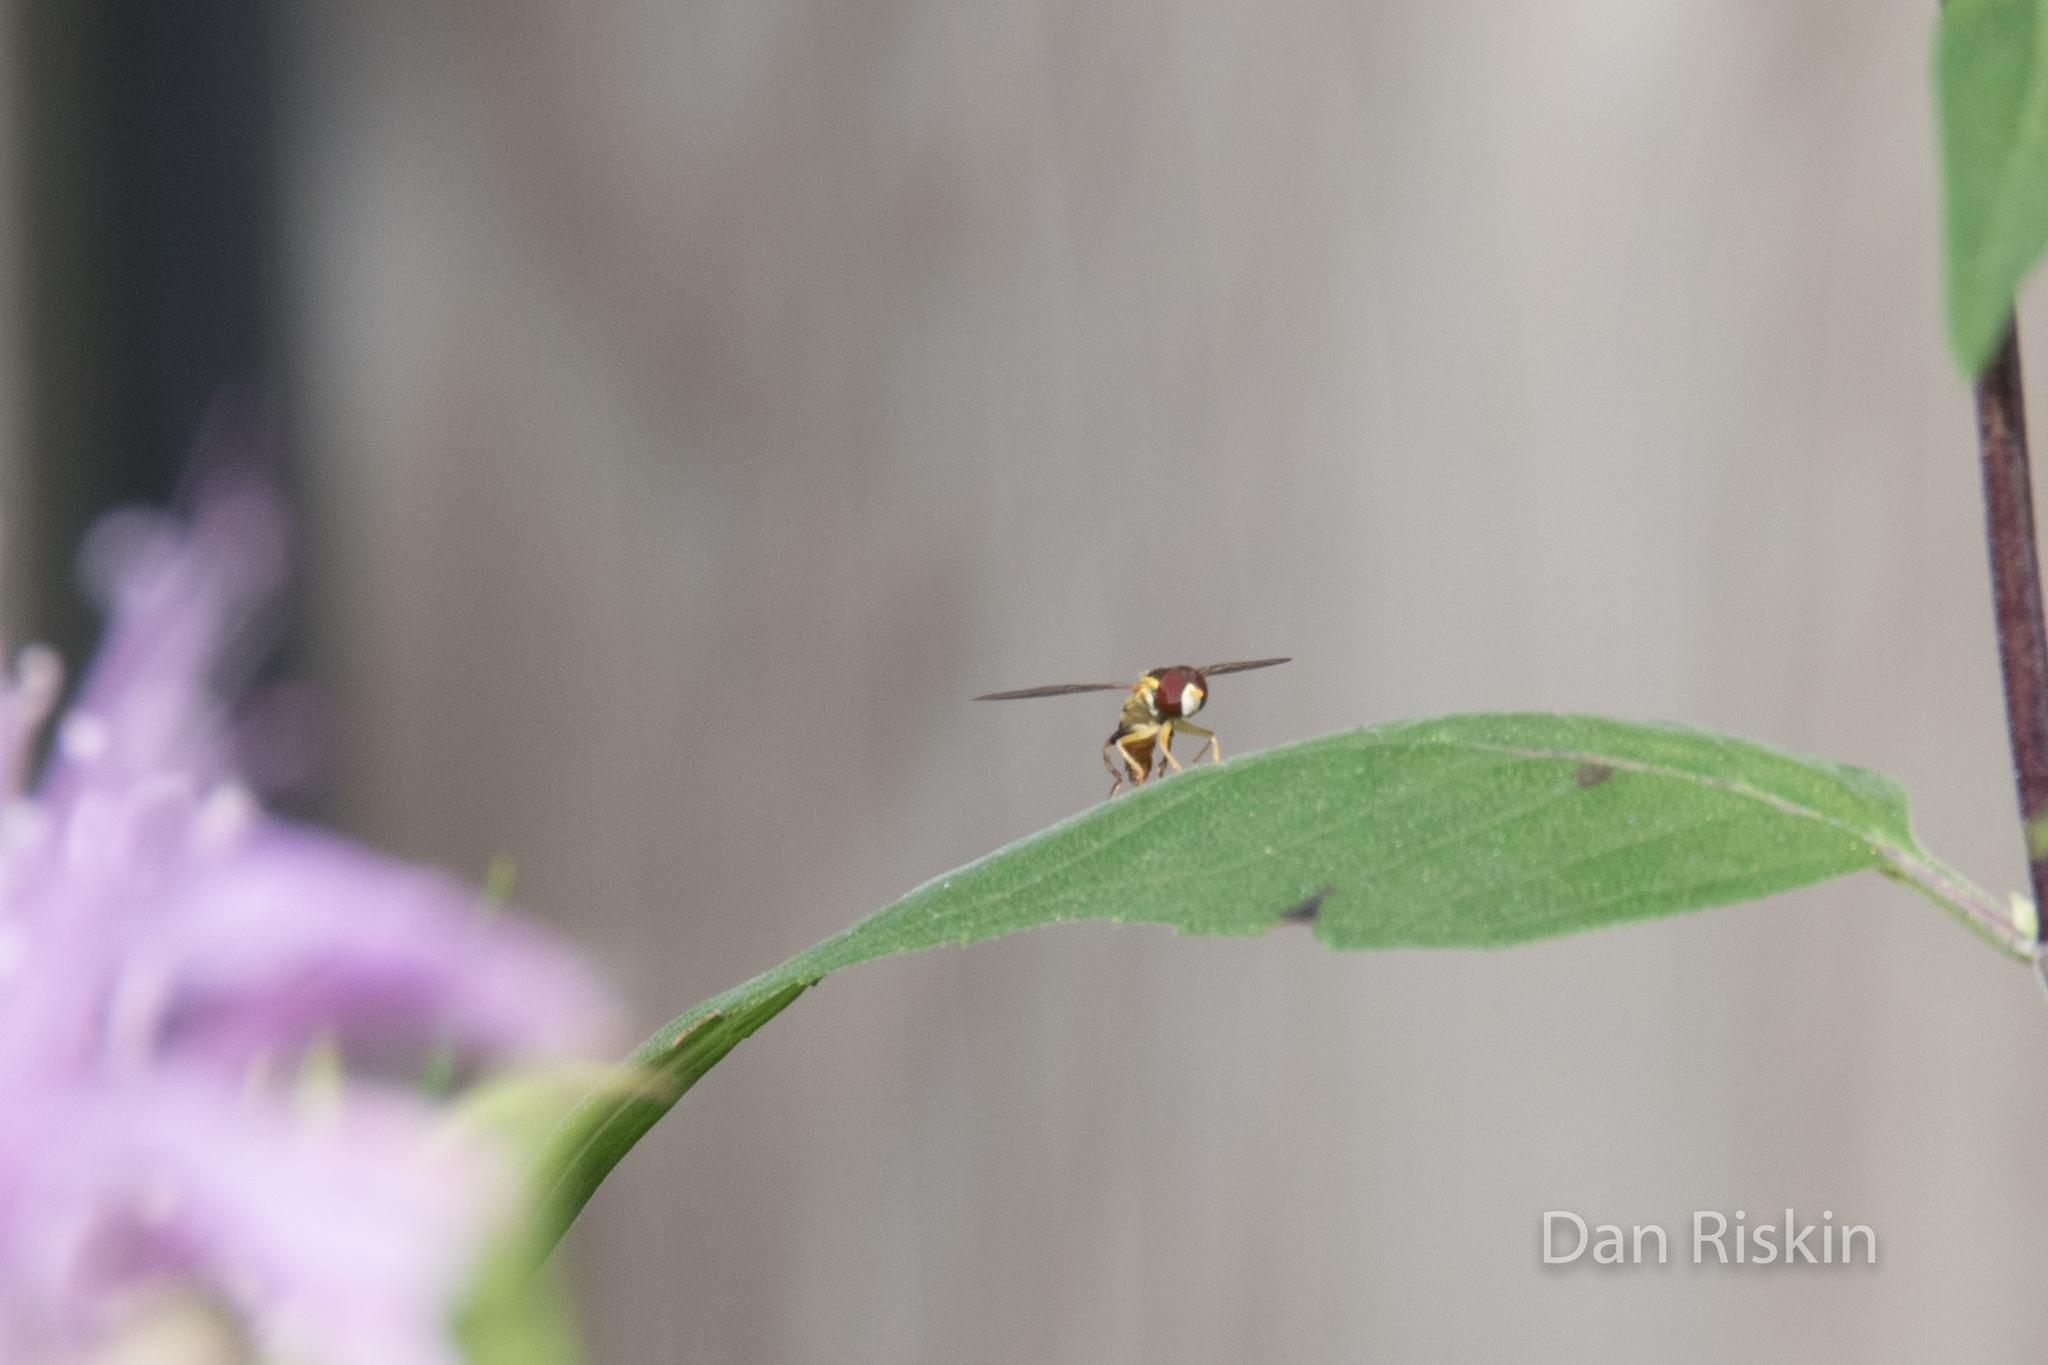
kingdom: Animalia
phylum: Arthropoda
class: Insecta
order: Diptera
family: Syrphidae
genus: Toxomerus
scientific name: Toxomerus geminatus
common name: Eastern calligrapher
